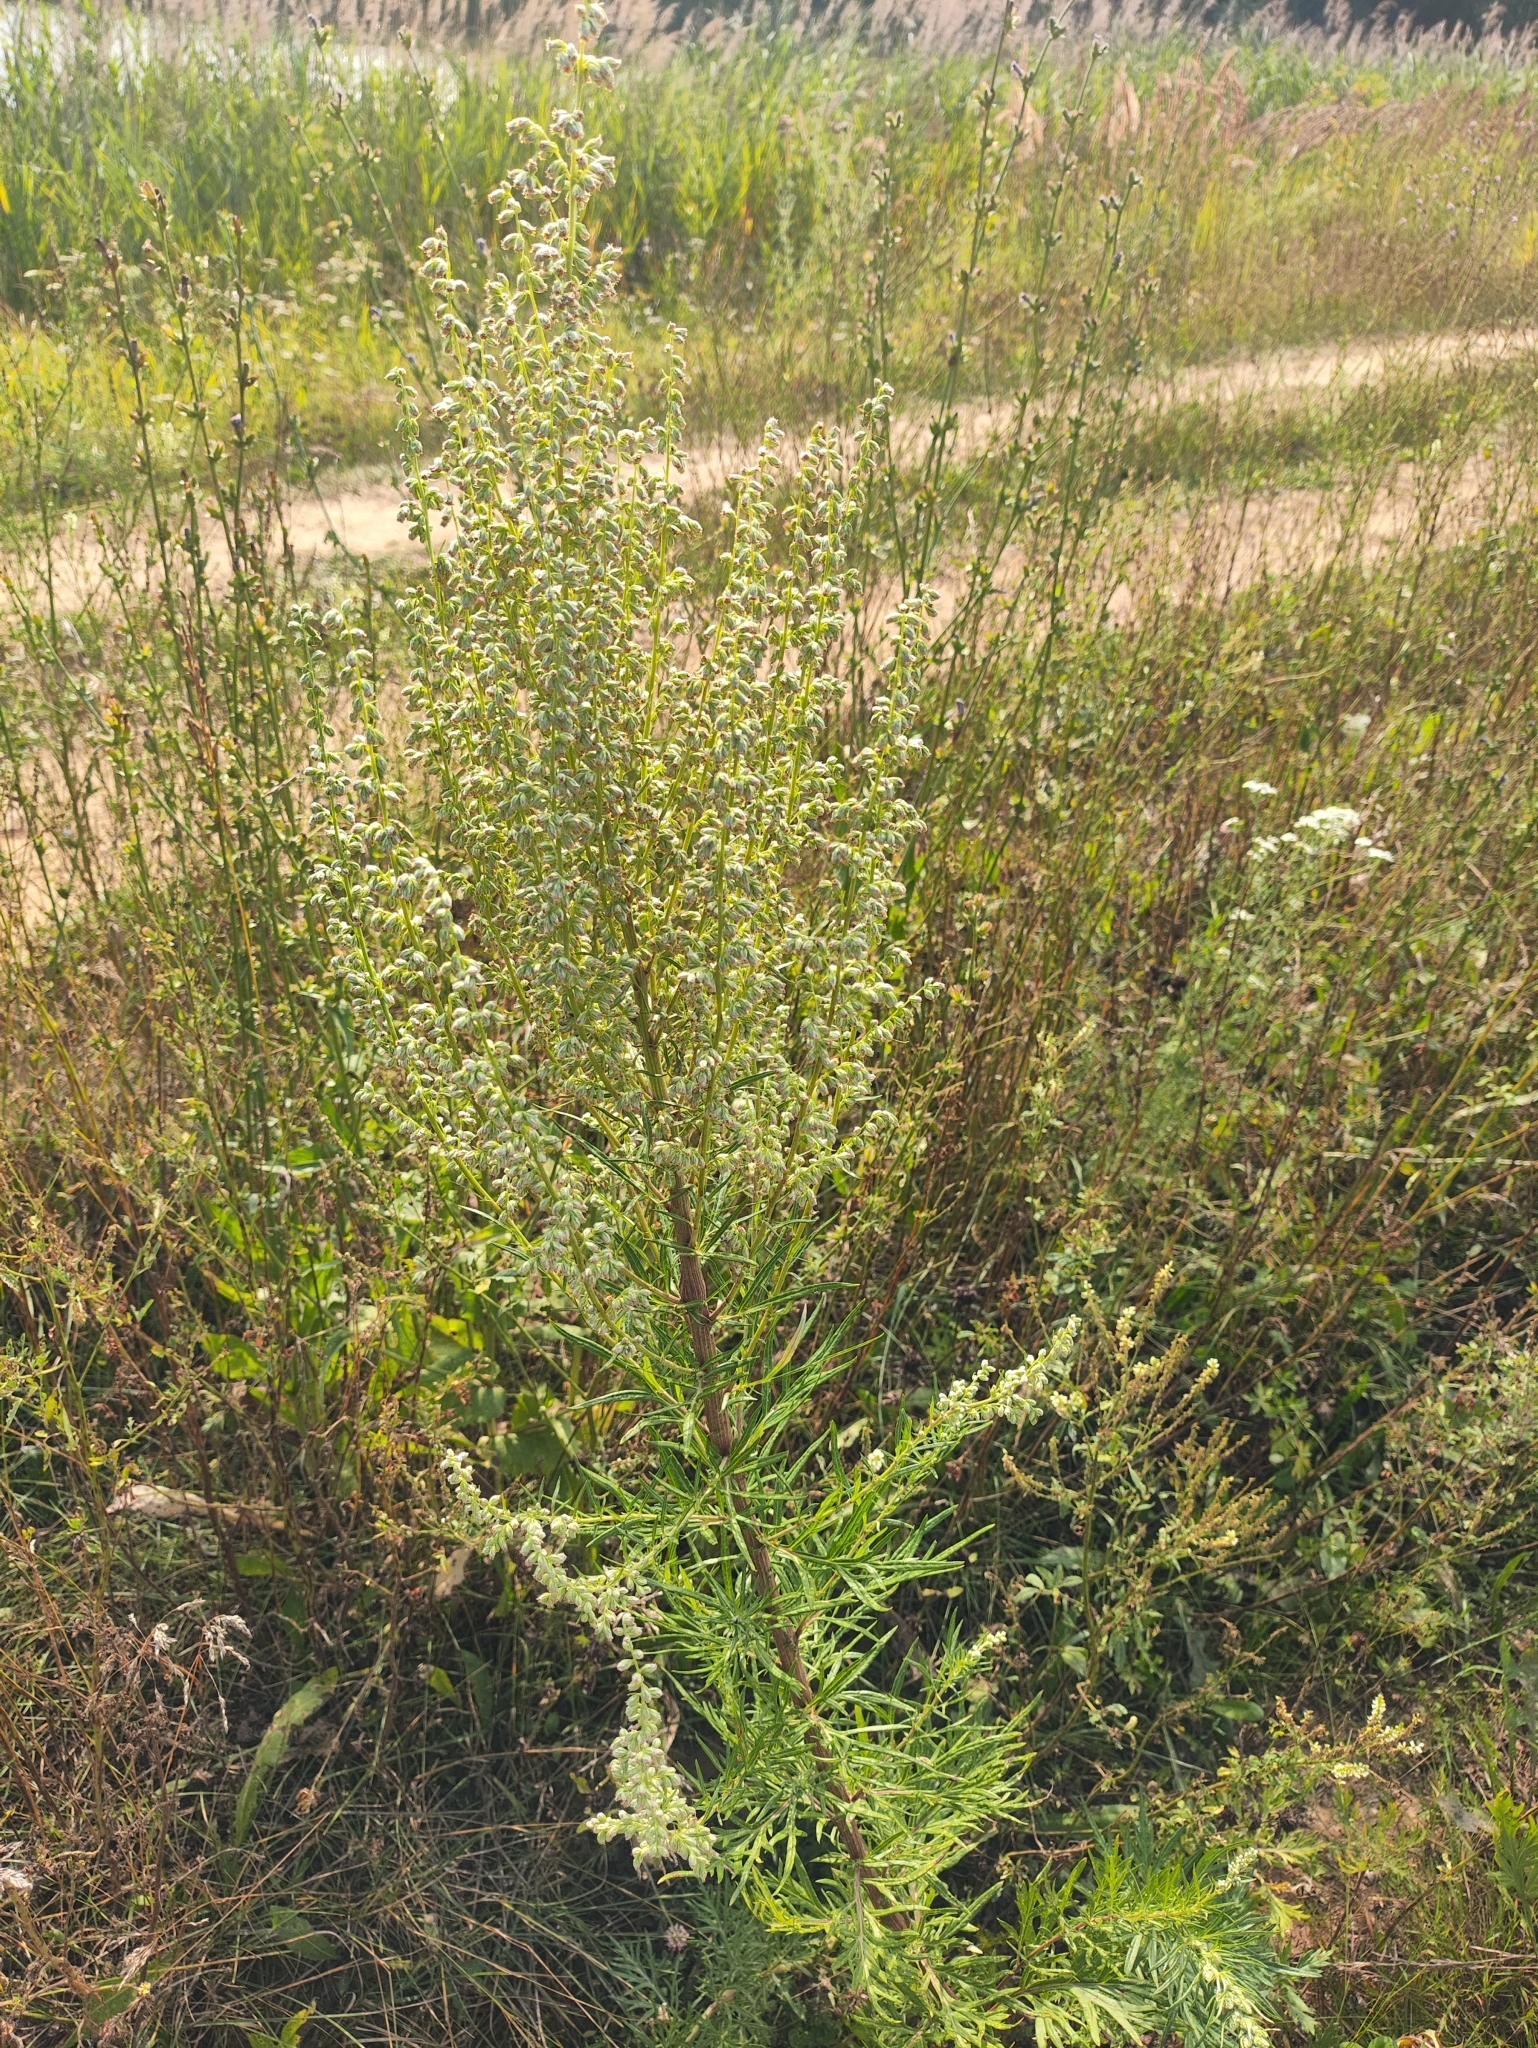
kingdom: Plantae
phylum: Tracheophyta
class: Magnoliopsida
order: Asterales
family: Asteraceae
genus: Artemisia
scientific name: Artemisia vulgaris
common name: Mugwort
